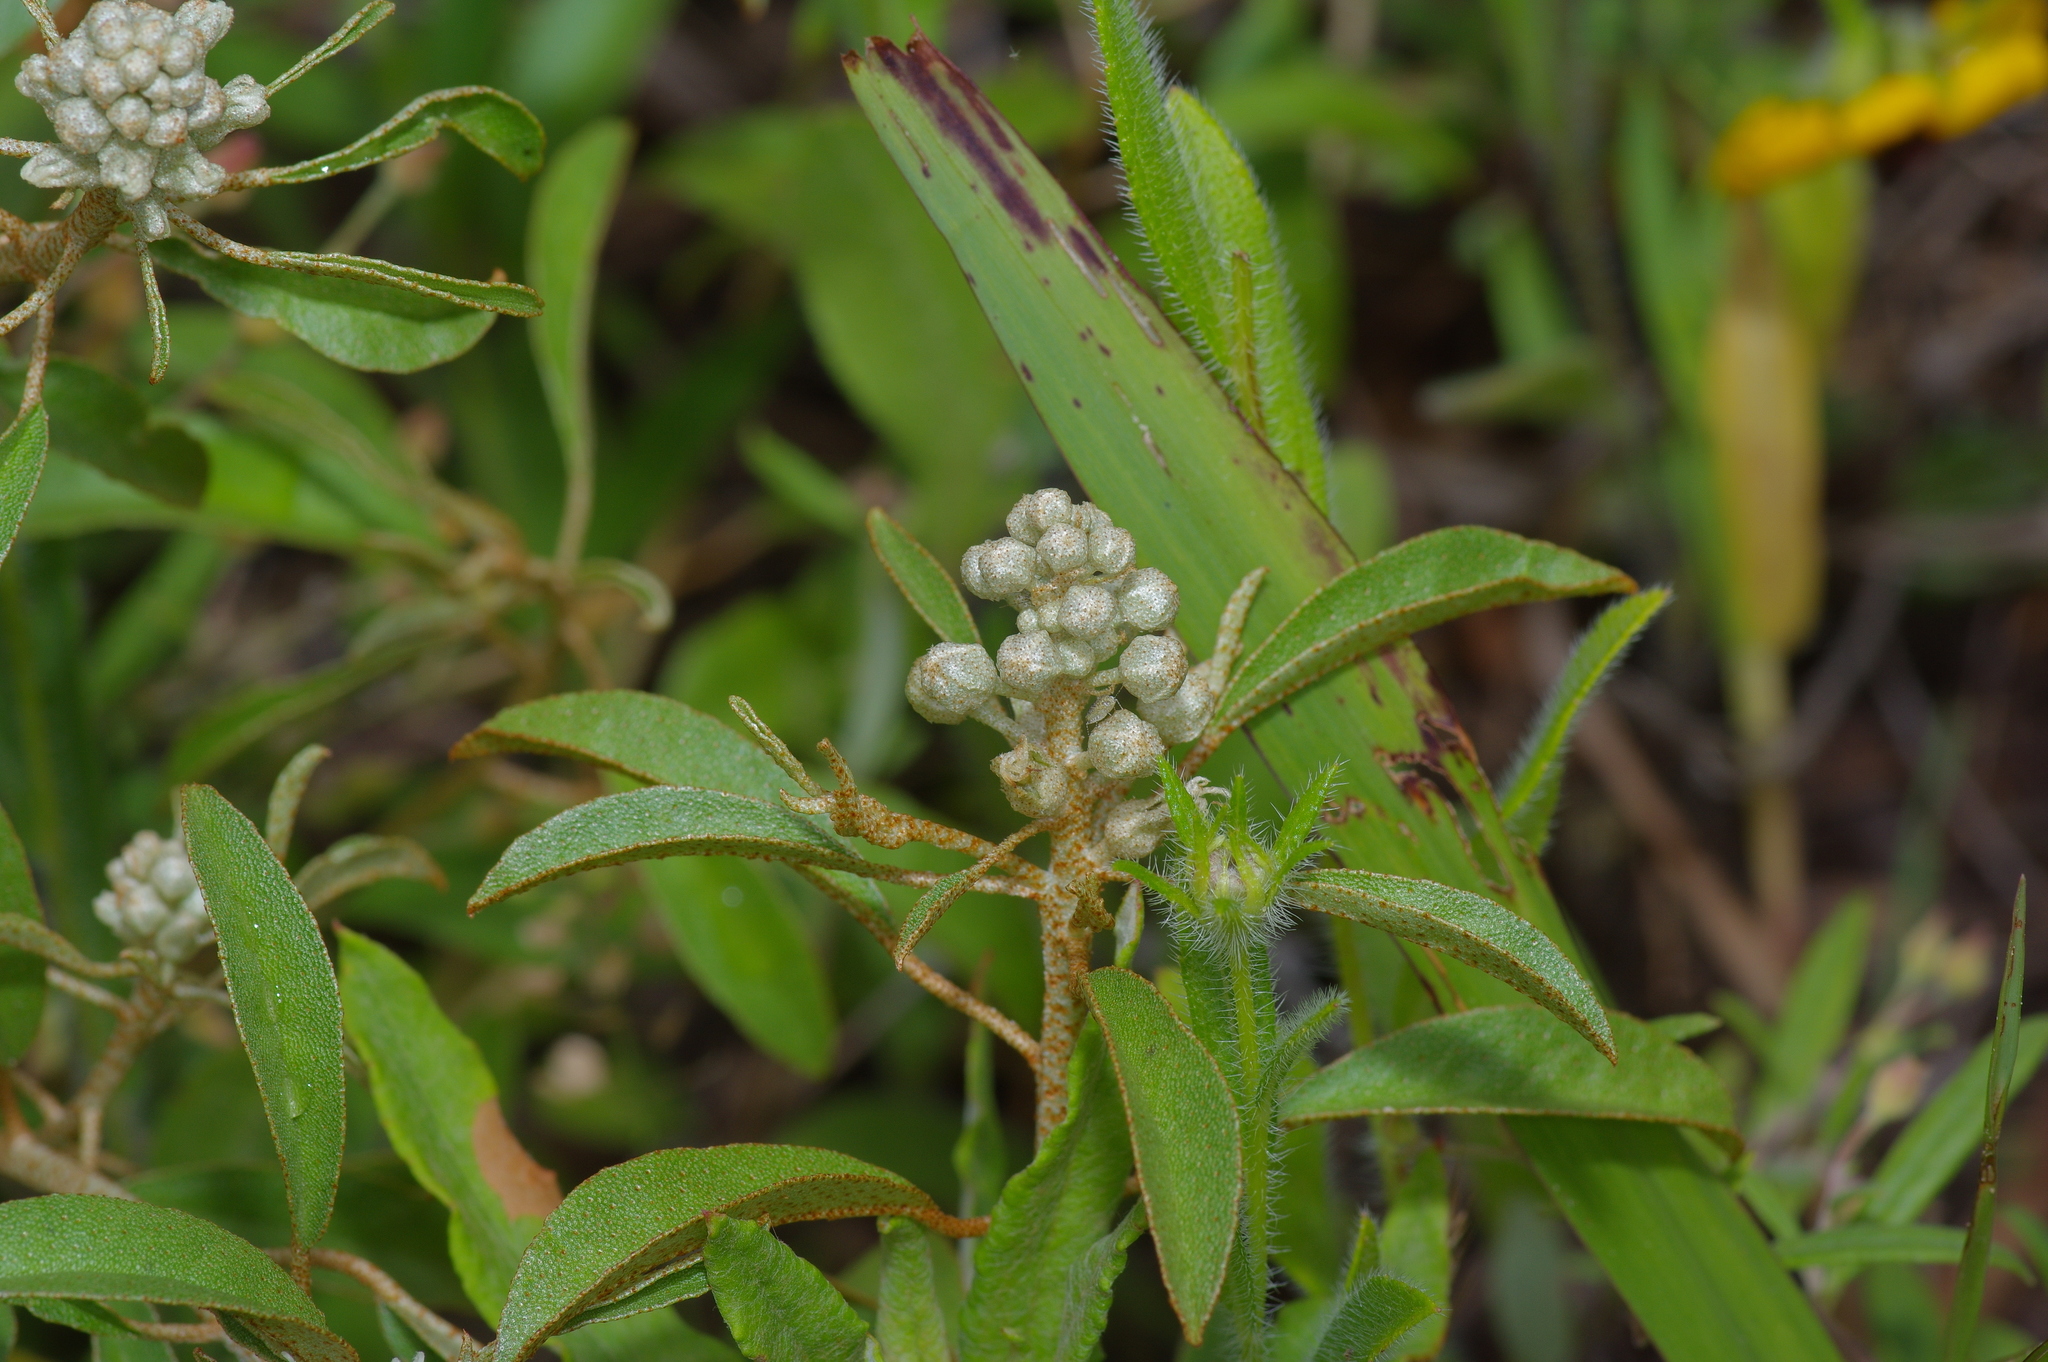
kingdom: Plantae
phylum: Tracheophyta
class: Magnoliopsida
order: Malpighiales
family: Euphorbiaceae
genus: Croton
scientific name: Croton argyranthemus
